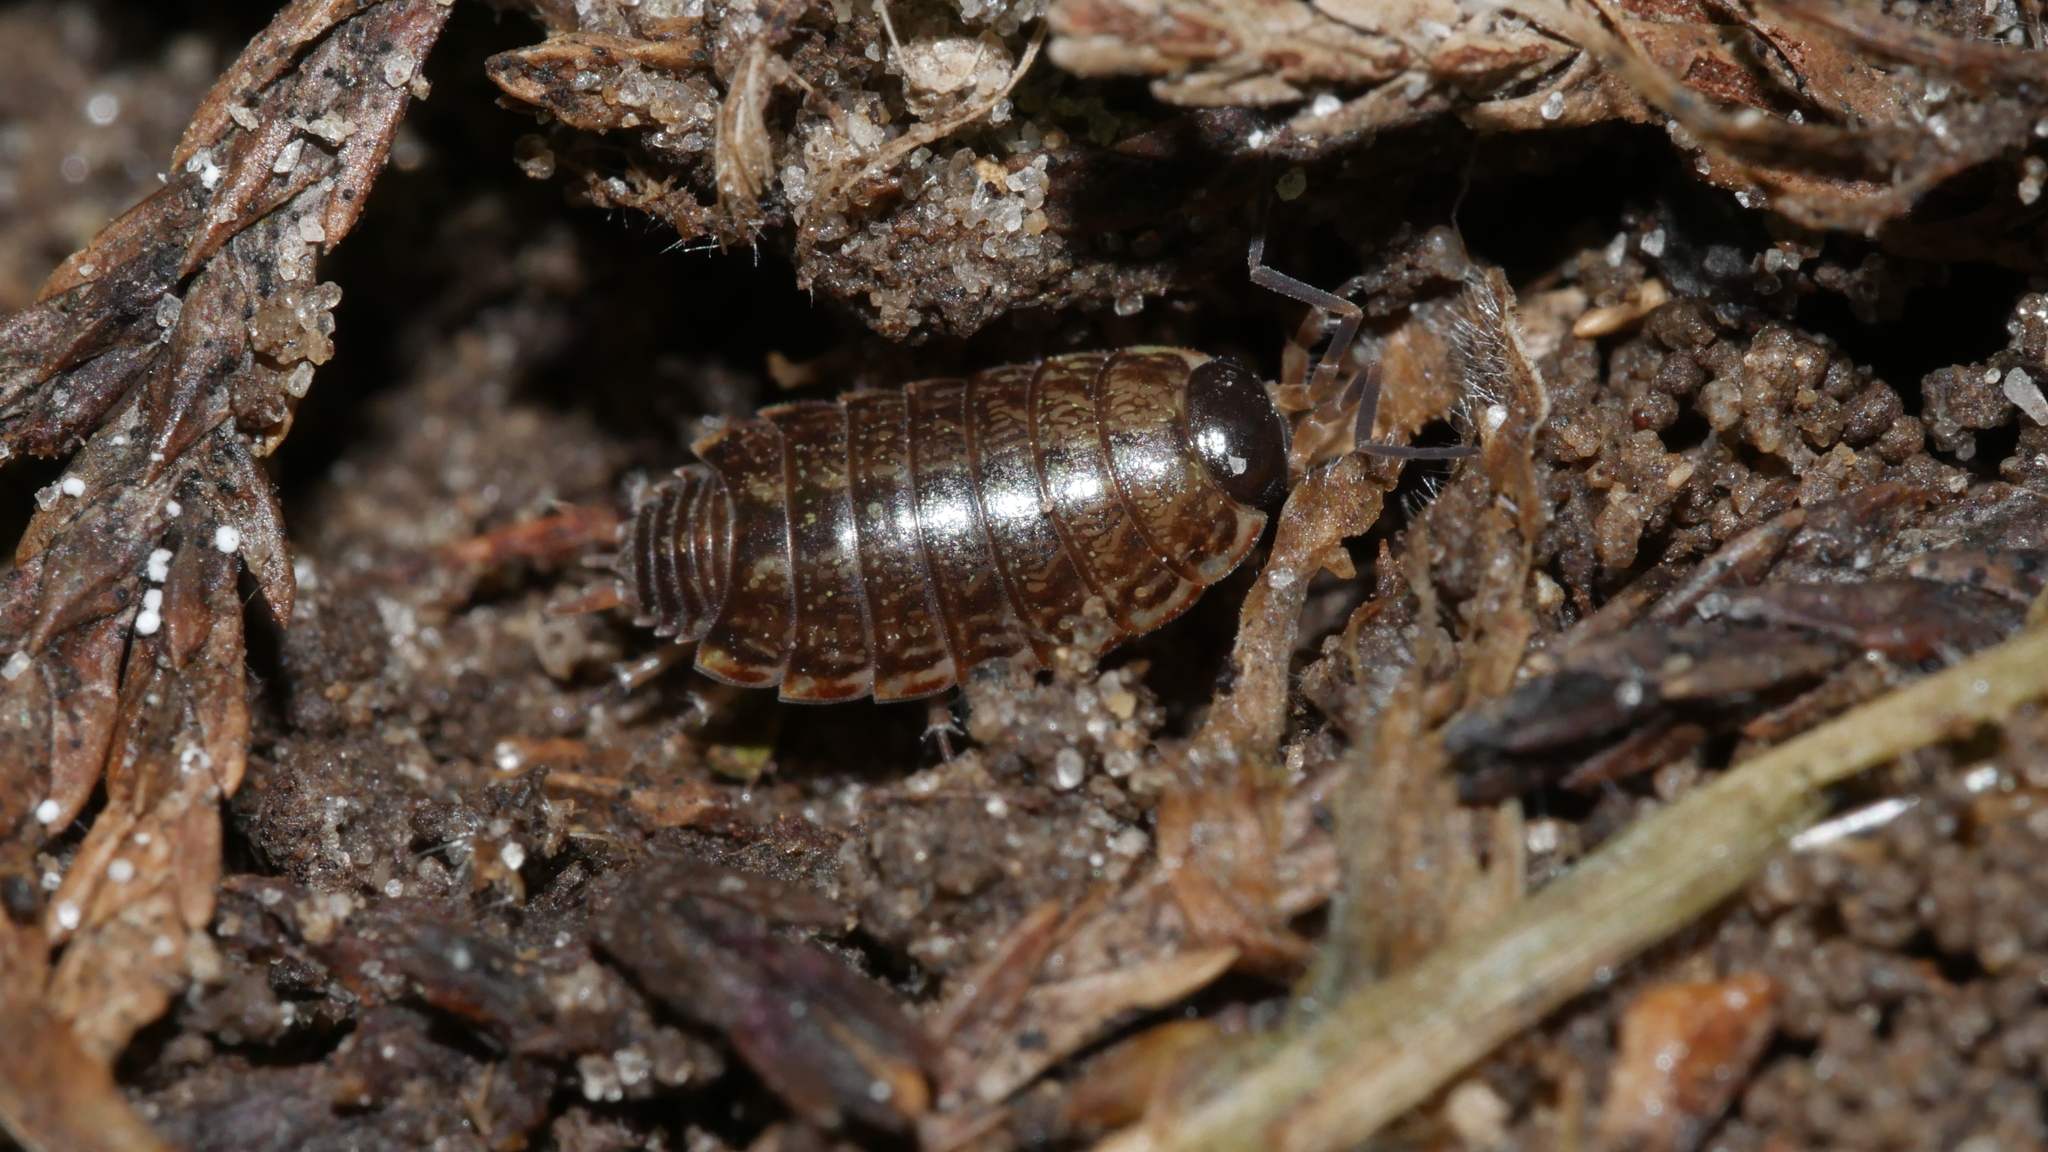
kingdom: Animalia
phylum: Arthropoda
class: Malacostraca
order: Isopoda
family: Philosciidae
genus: Philoscia
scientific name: Philoscia muscorum
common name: Common striped woodlouse
